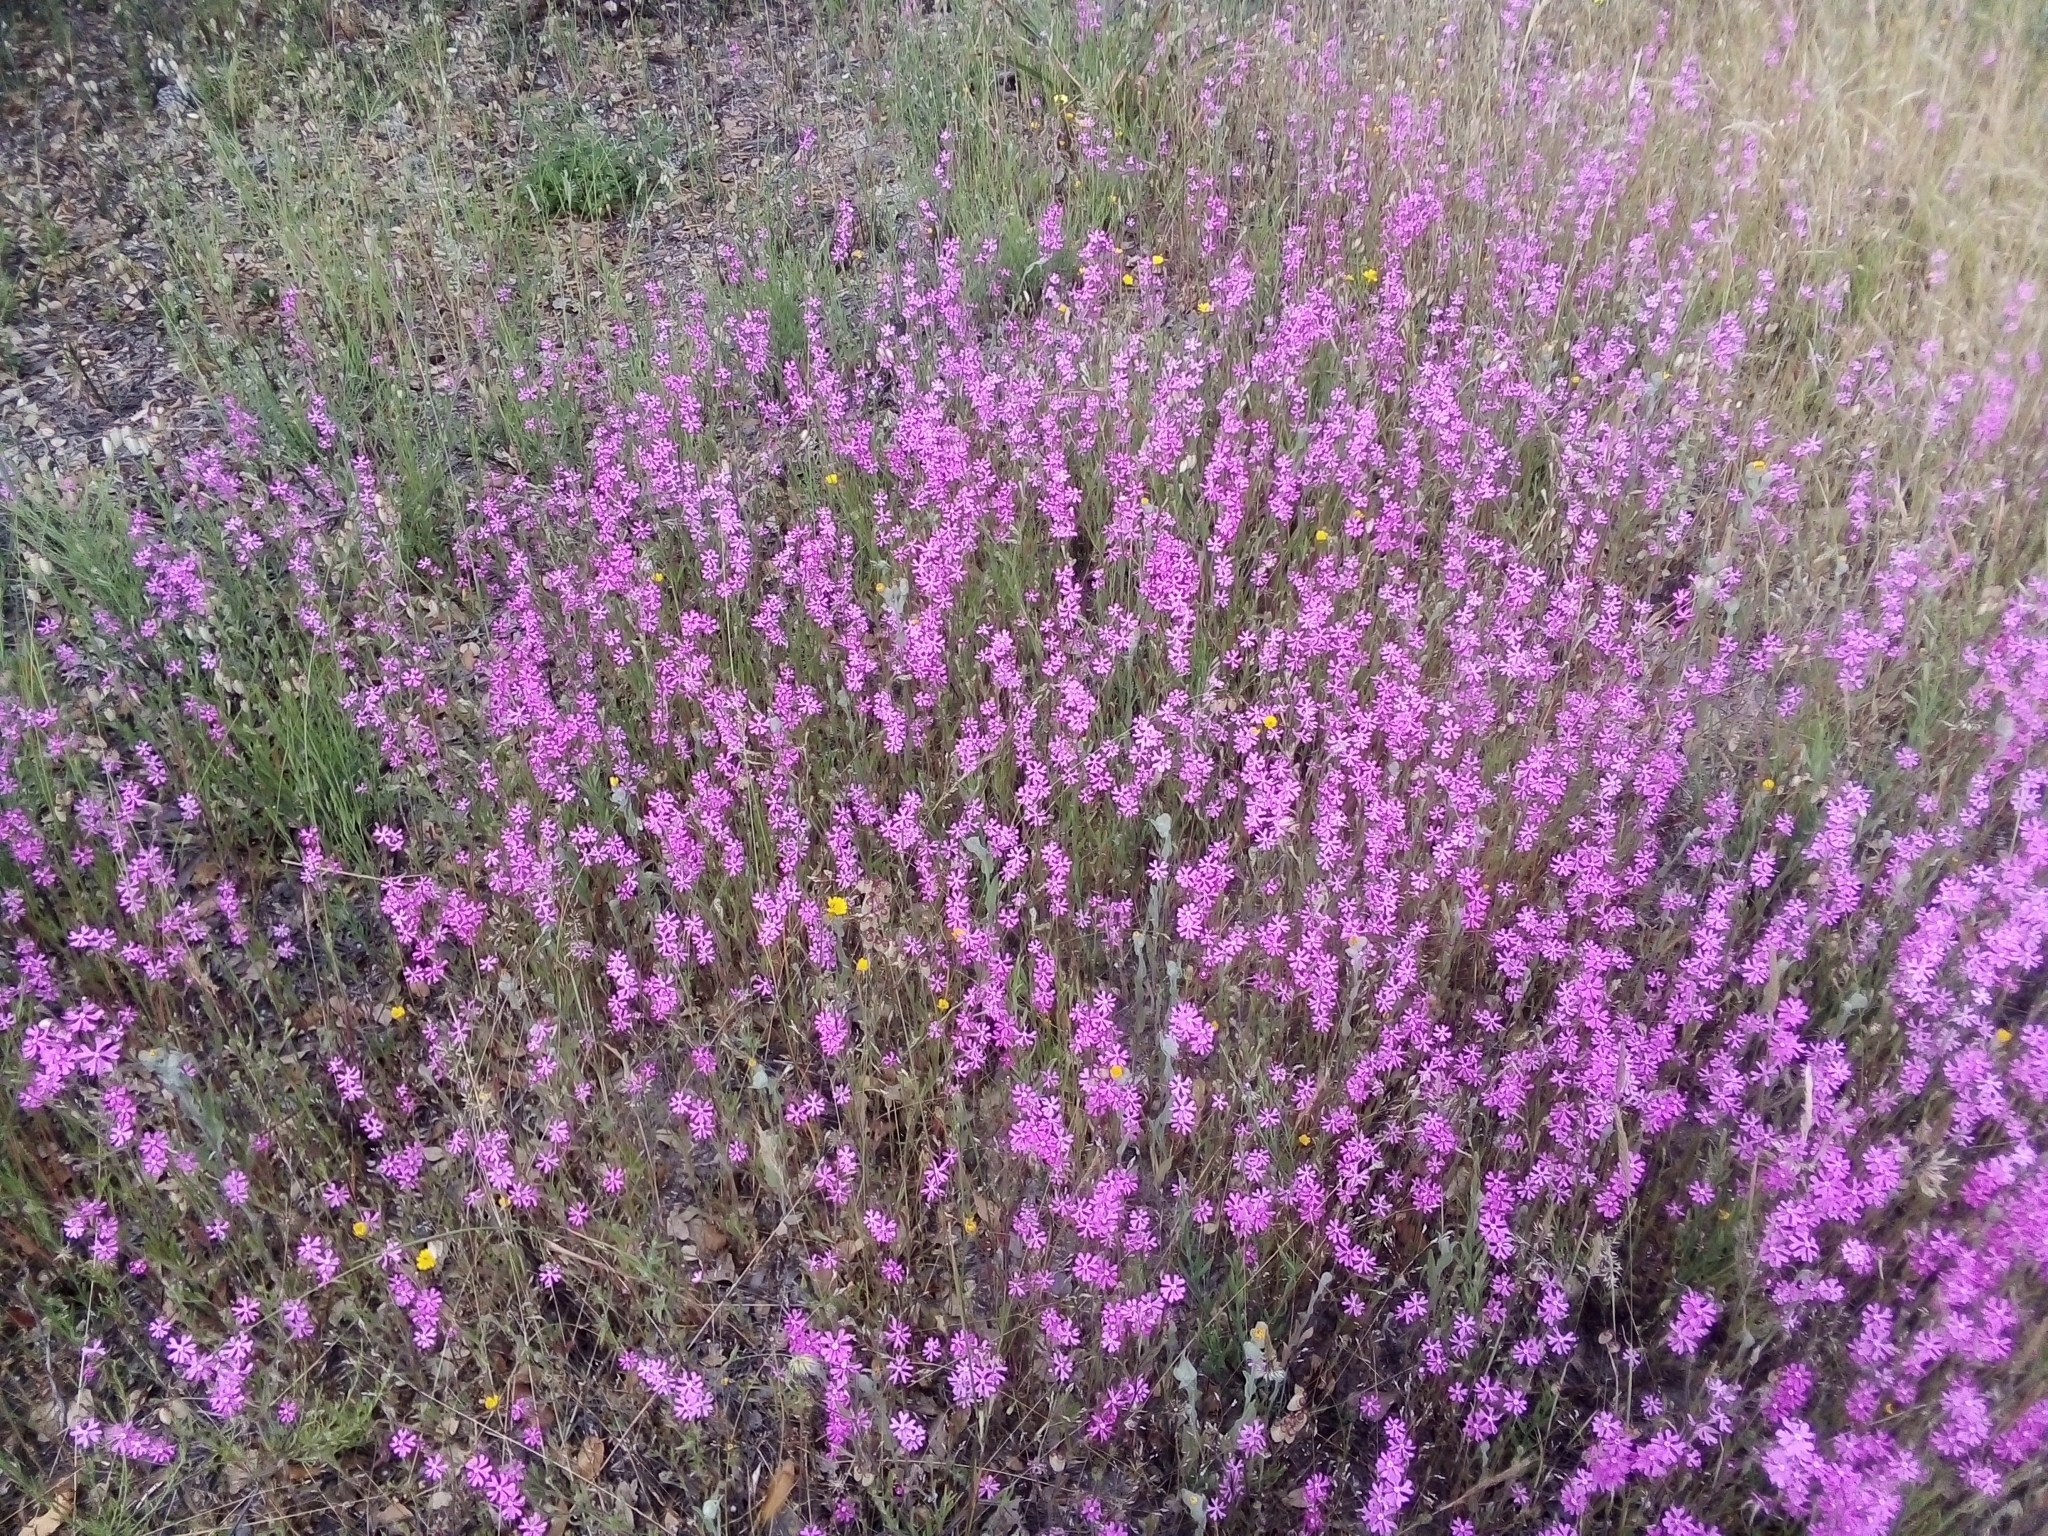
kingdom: Plantae
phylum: Tracheophyta
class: Magnoliopsida
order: Caryophyllales
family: Caryophyllaceae
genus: Silene
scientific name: Silene scabriflora
